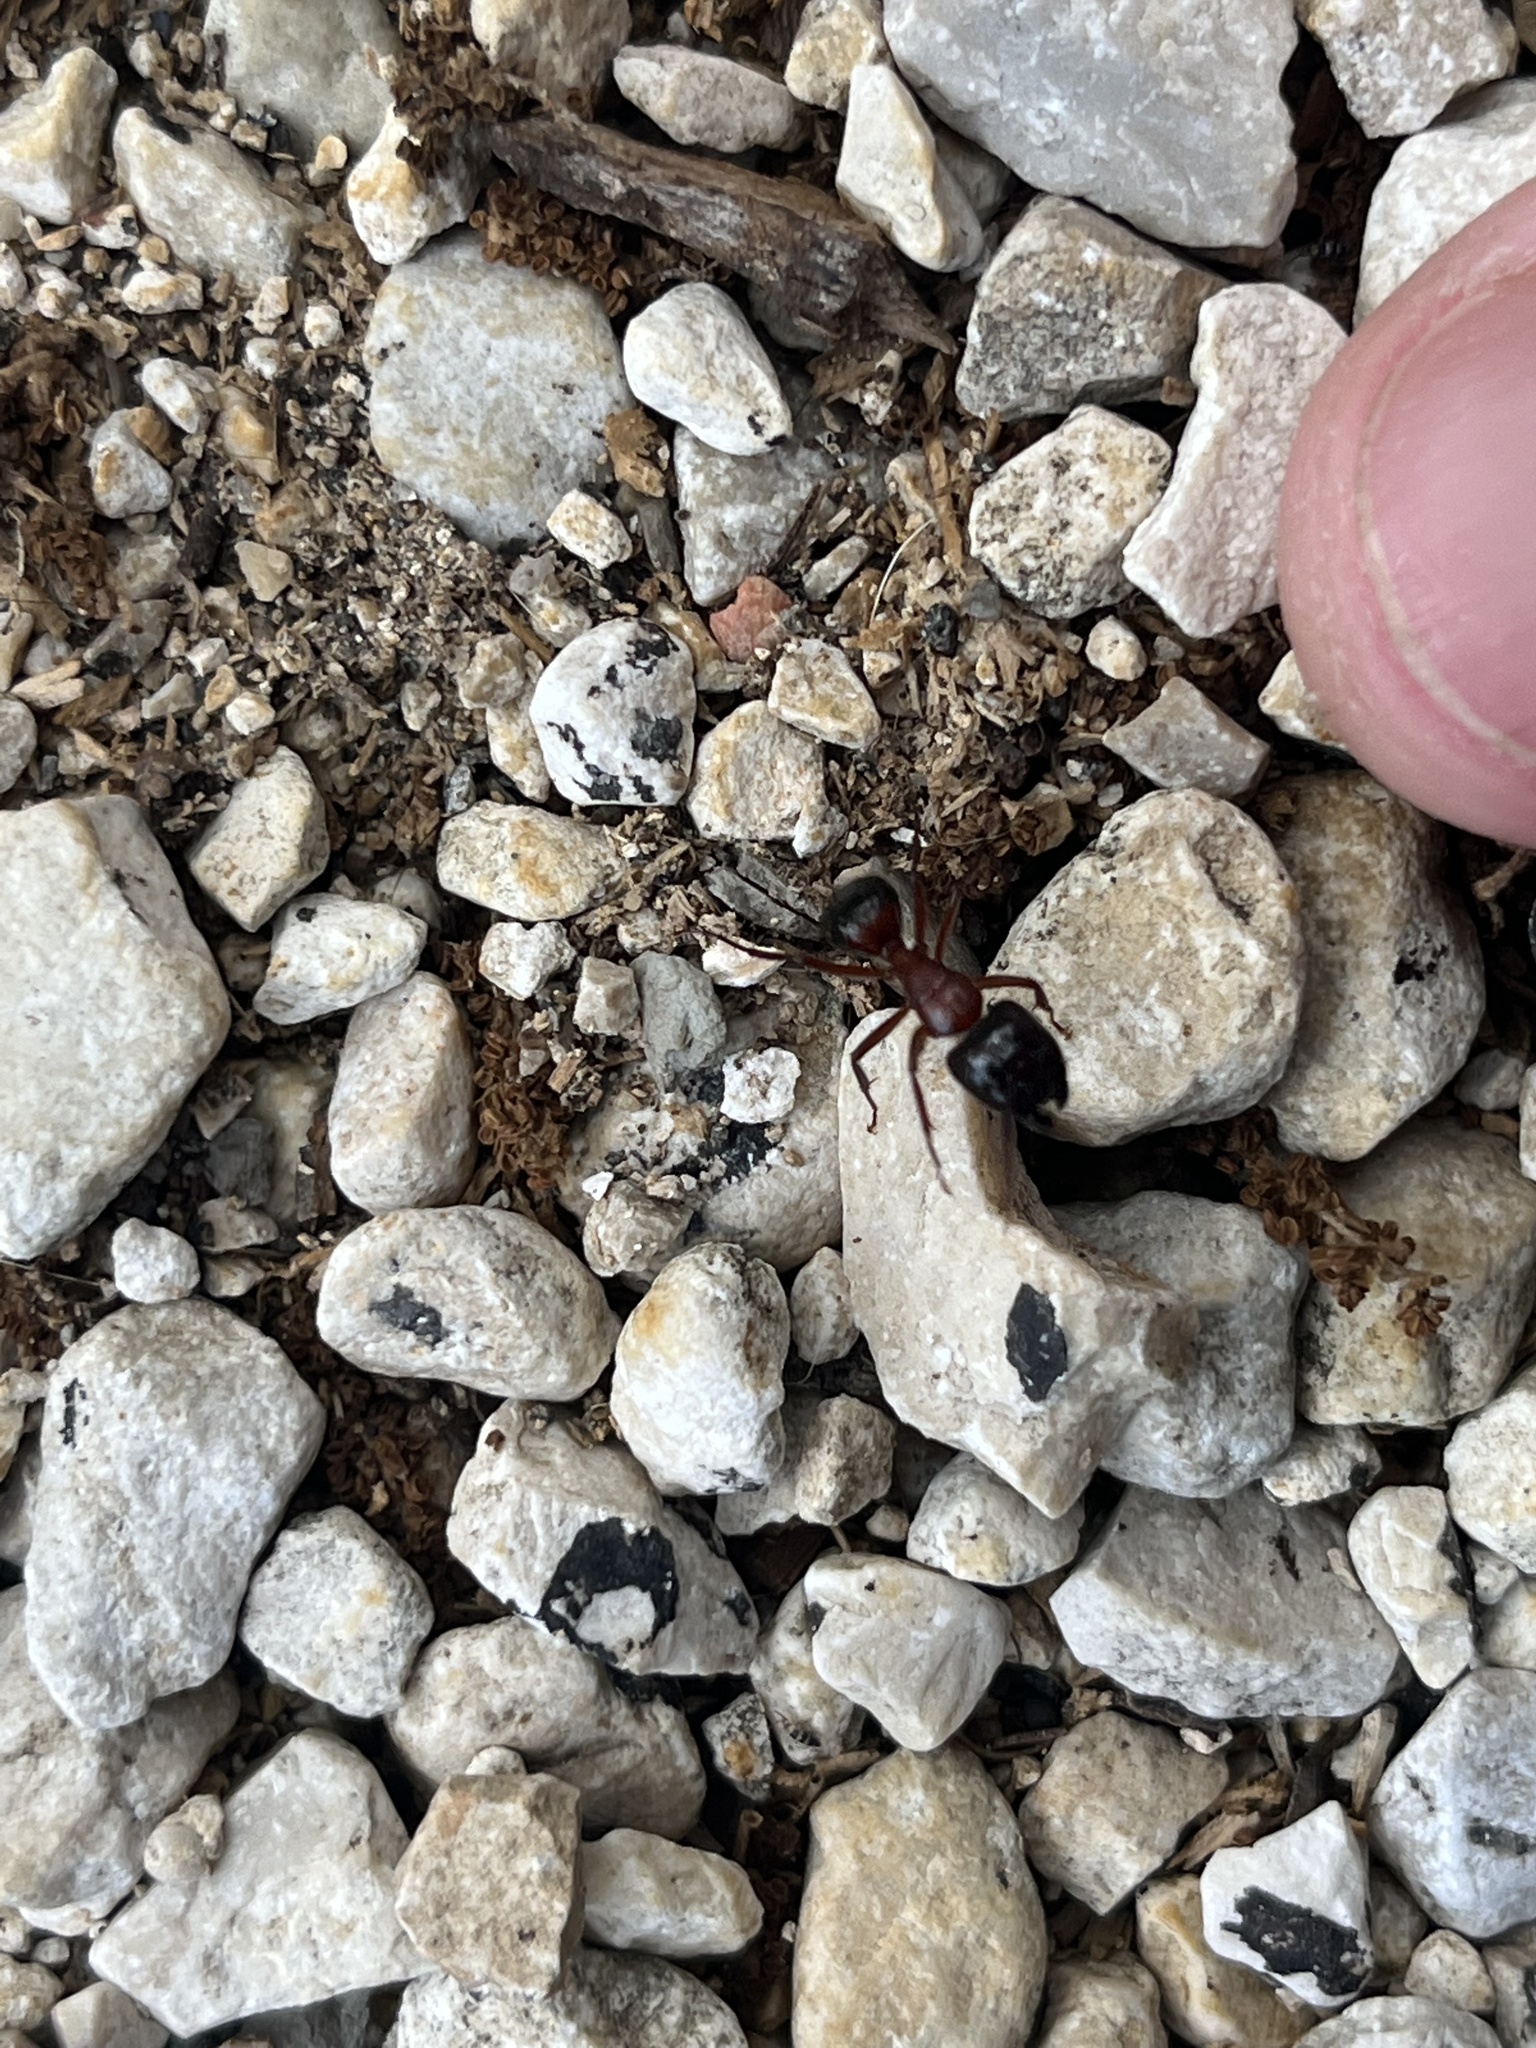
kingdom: Animalia
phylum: Arthropoda
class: Insecta
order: Hymenoptera
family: Formicidae
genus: Camponotus
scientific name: Camponotus texanus
